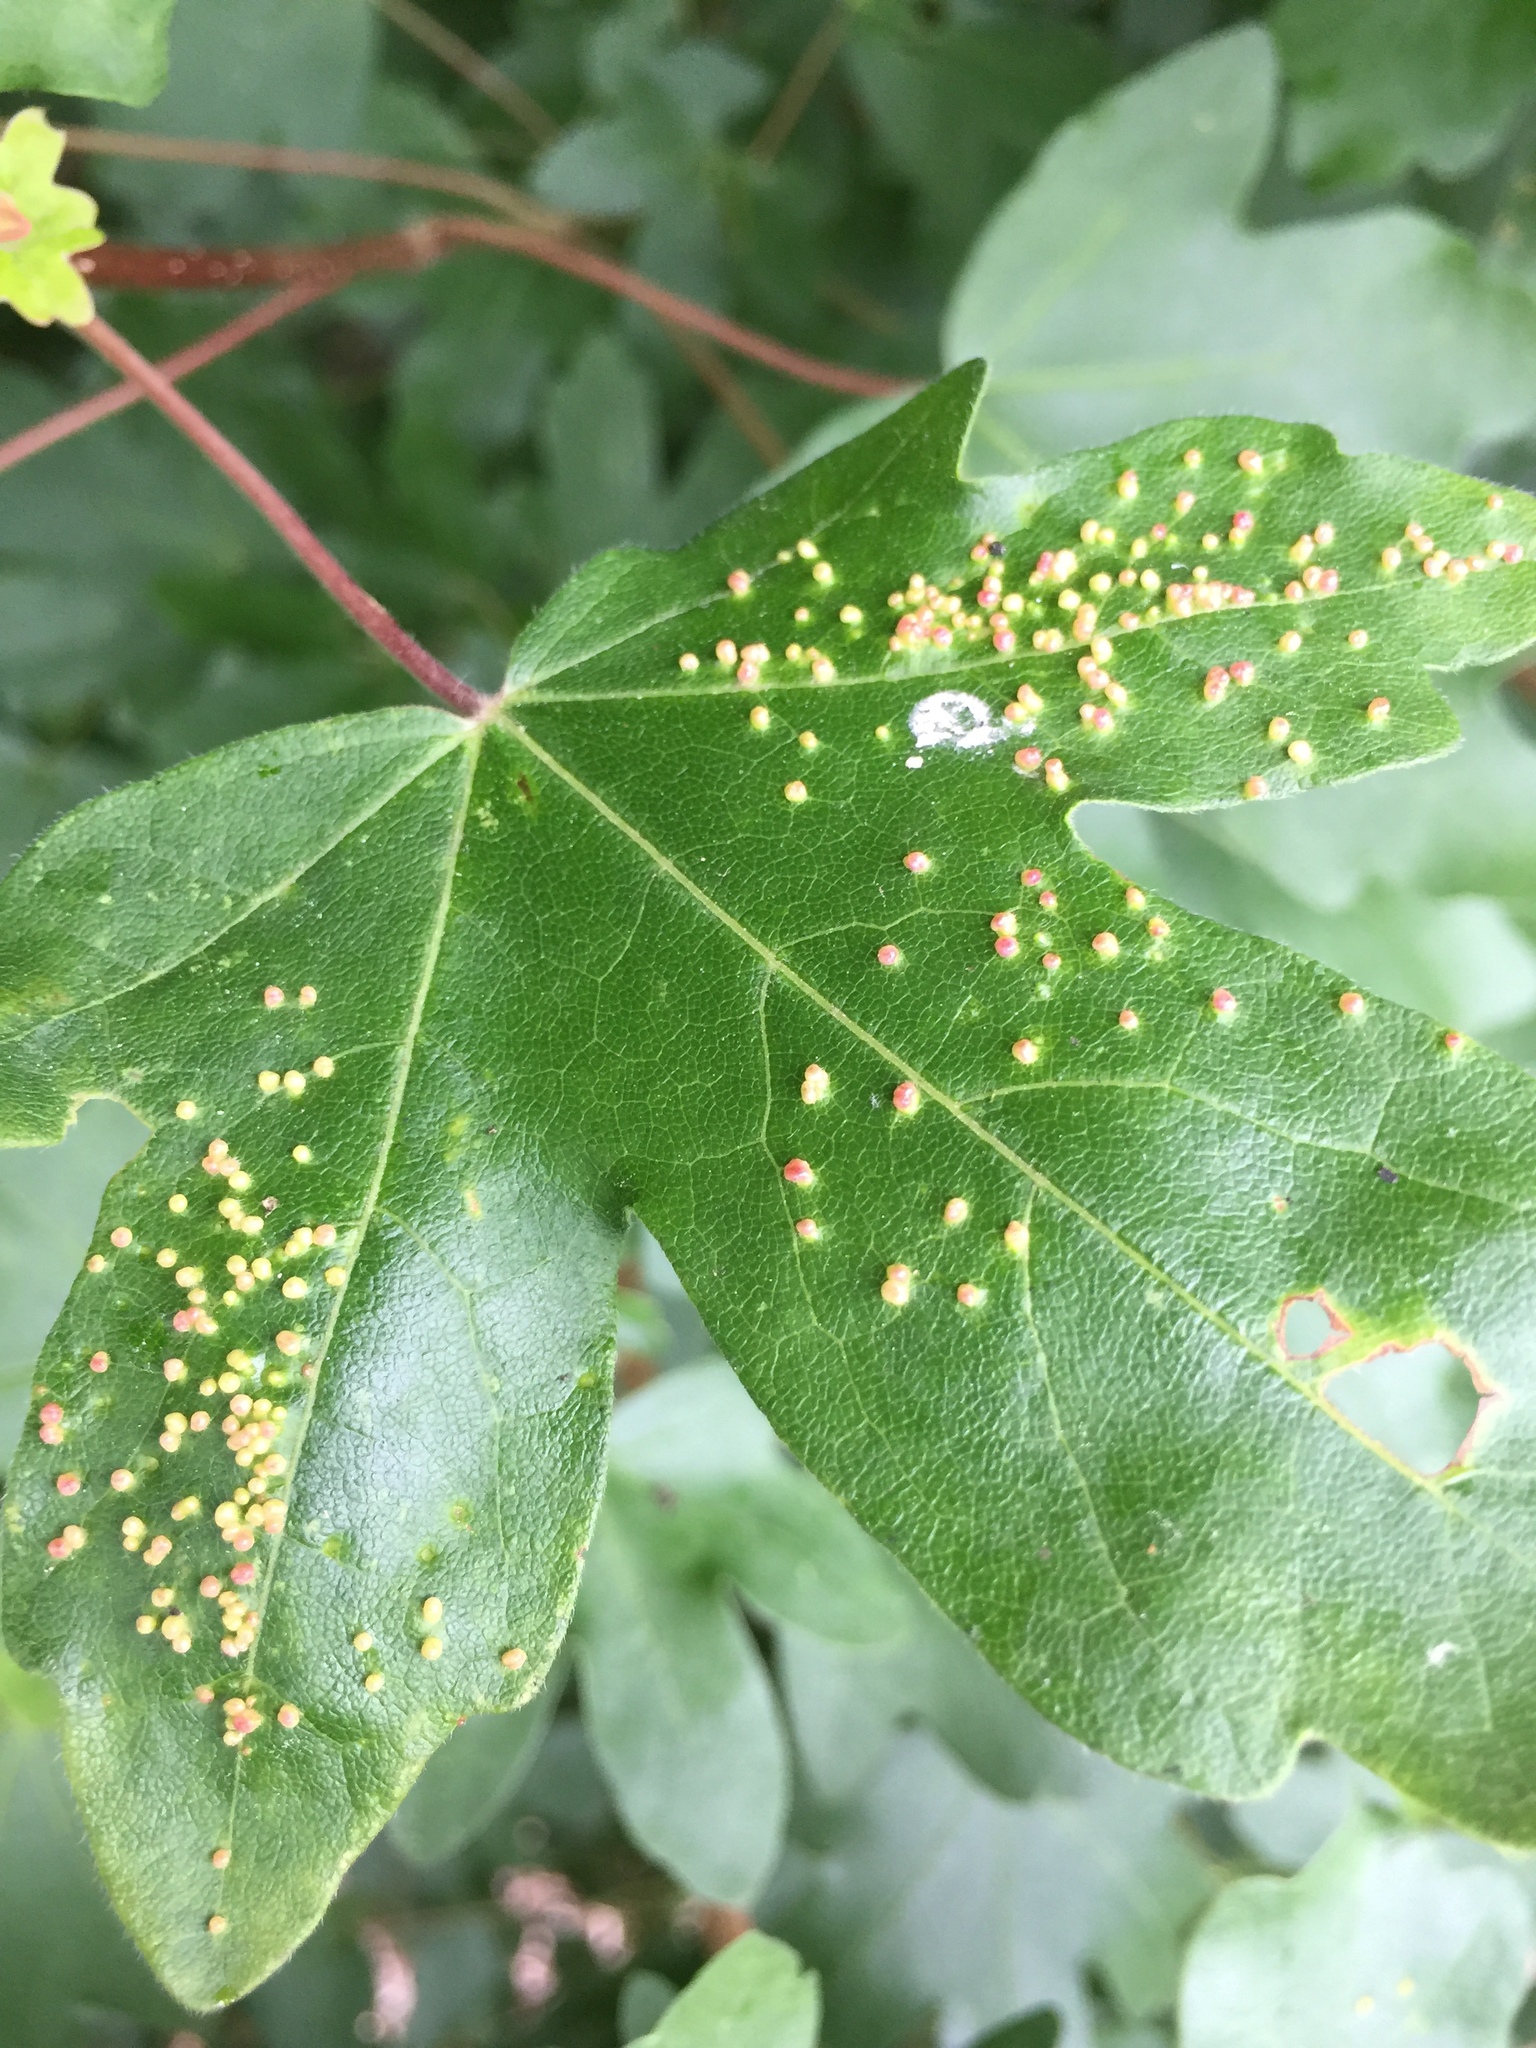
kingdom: Animalia
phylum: Arthropoda
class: Arachnida
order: Trombidiformes
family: Eriophyidae
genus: Aceria
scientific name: Aceria myriadeum
